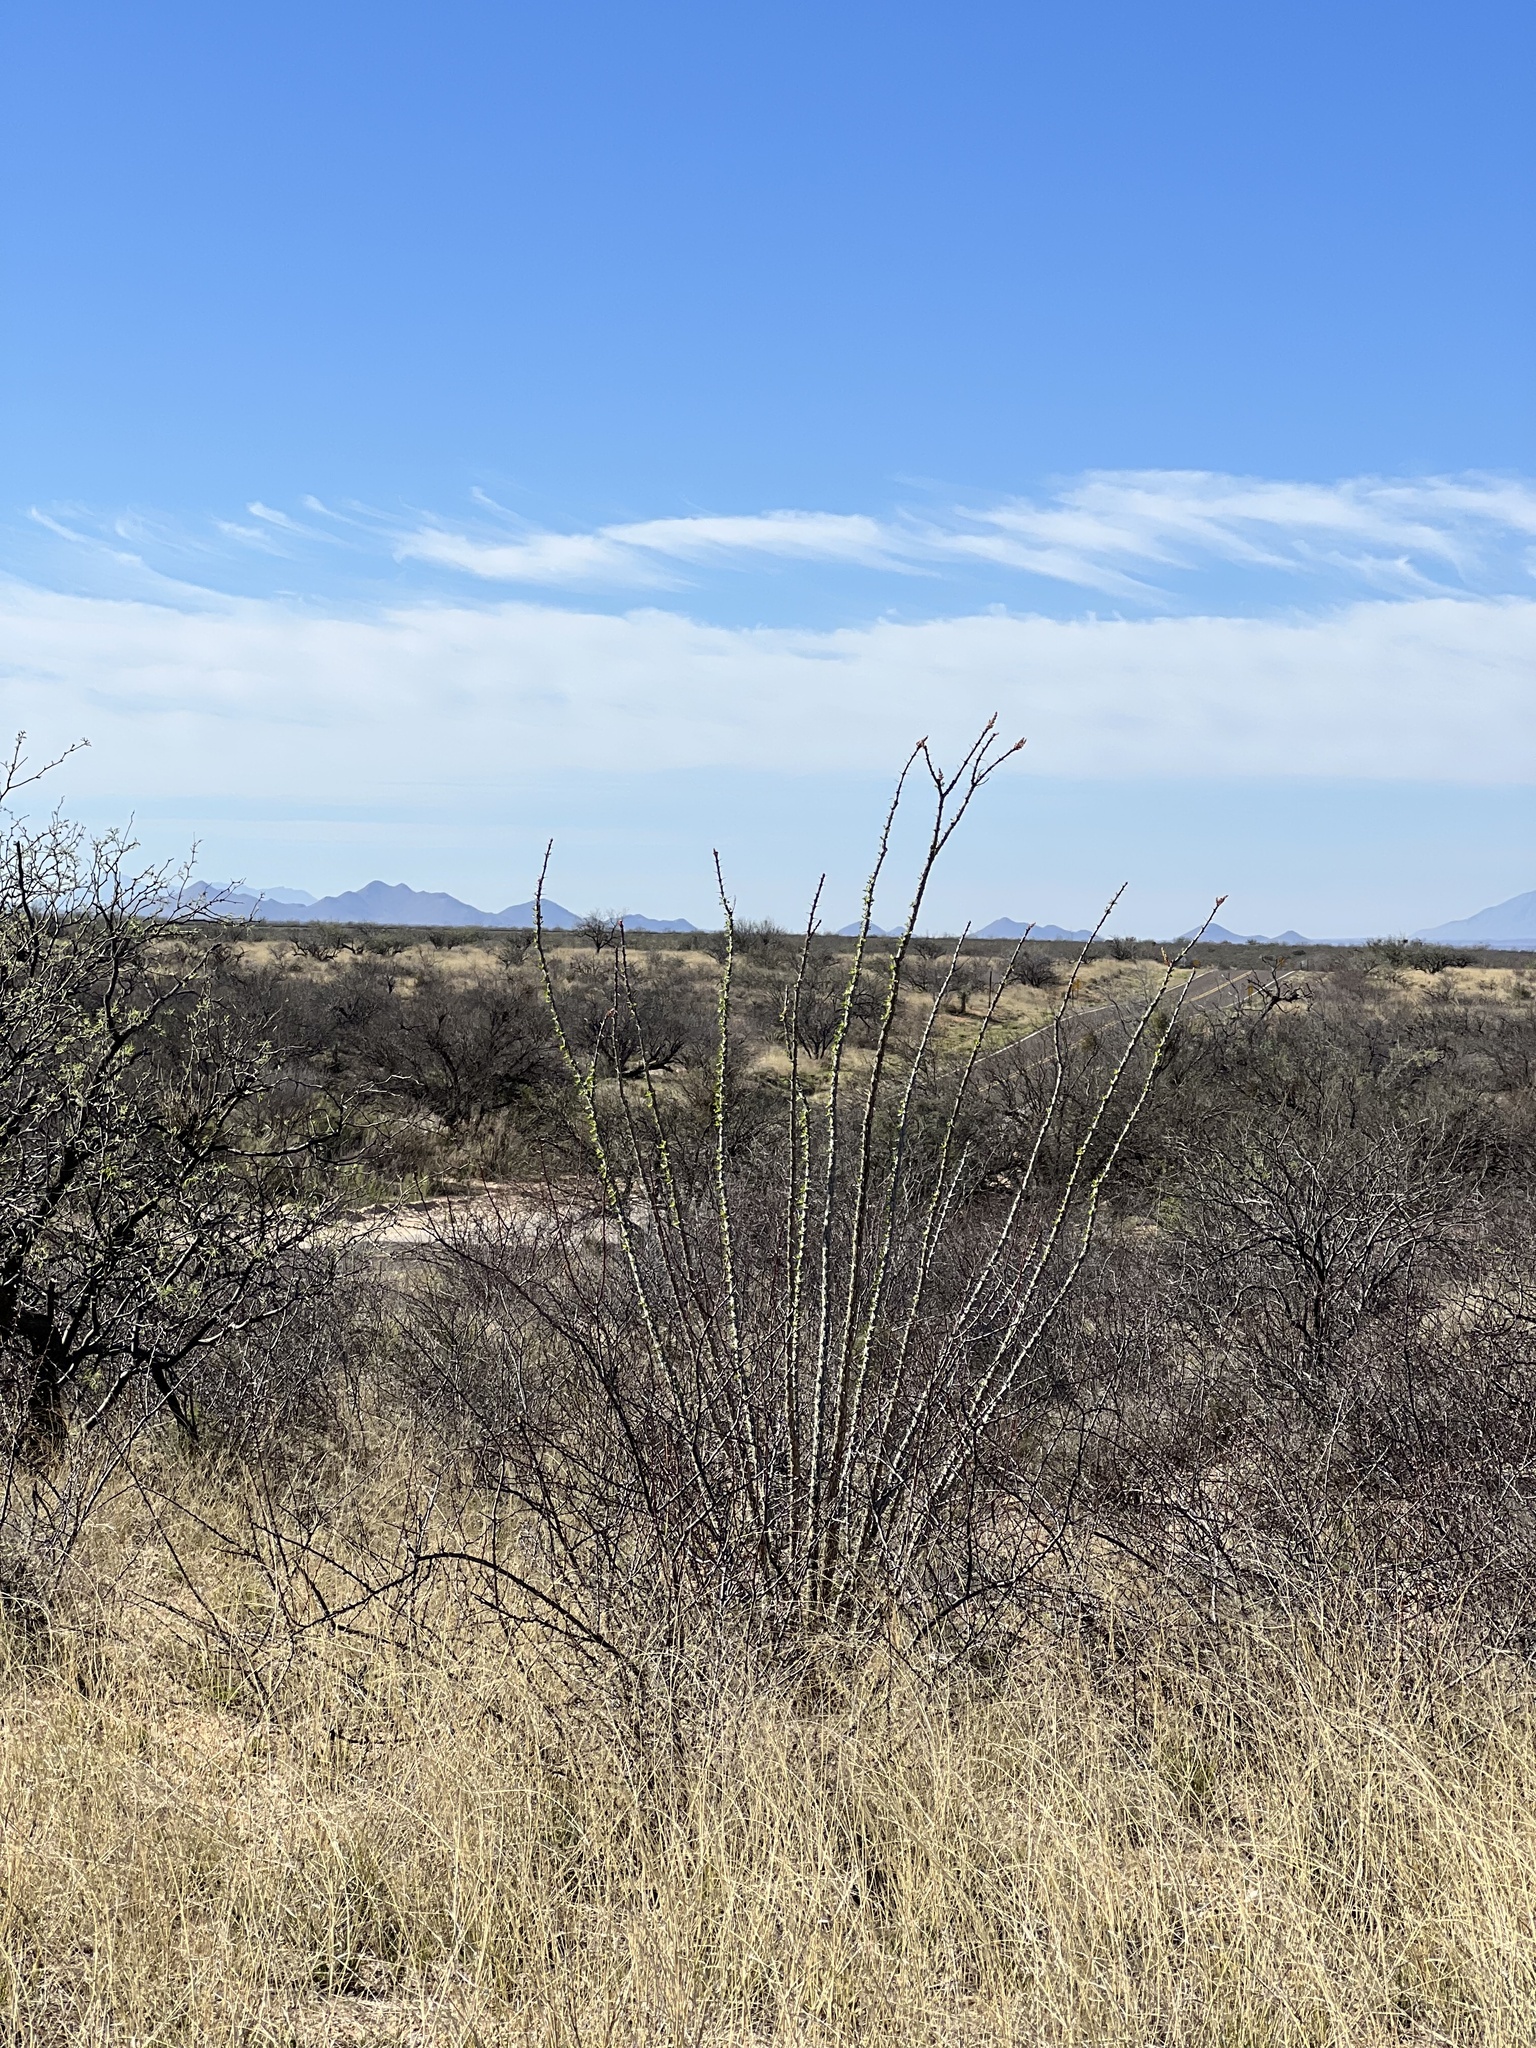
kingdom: Plantae
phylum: Tracheophyta
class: Magnoliopsida
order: Ericales
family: Fouquieriaceae
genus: Fouquieria
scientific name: Fouquieria splendens
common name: Vine-cactus
